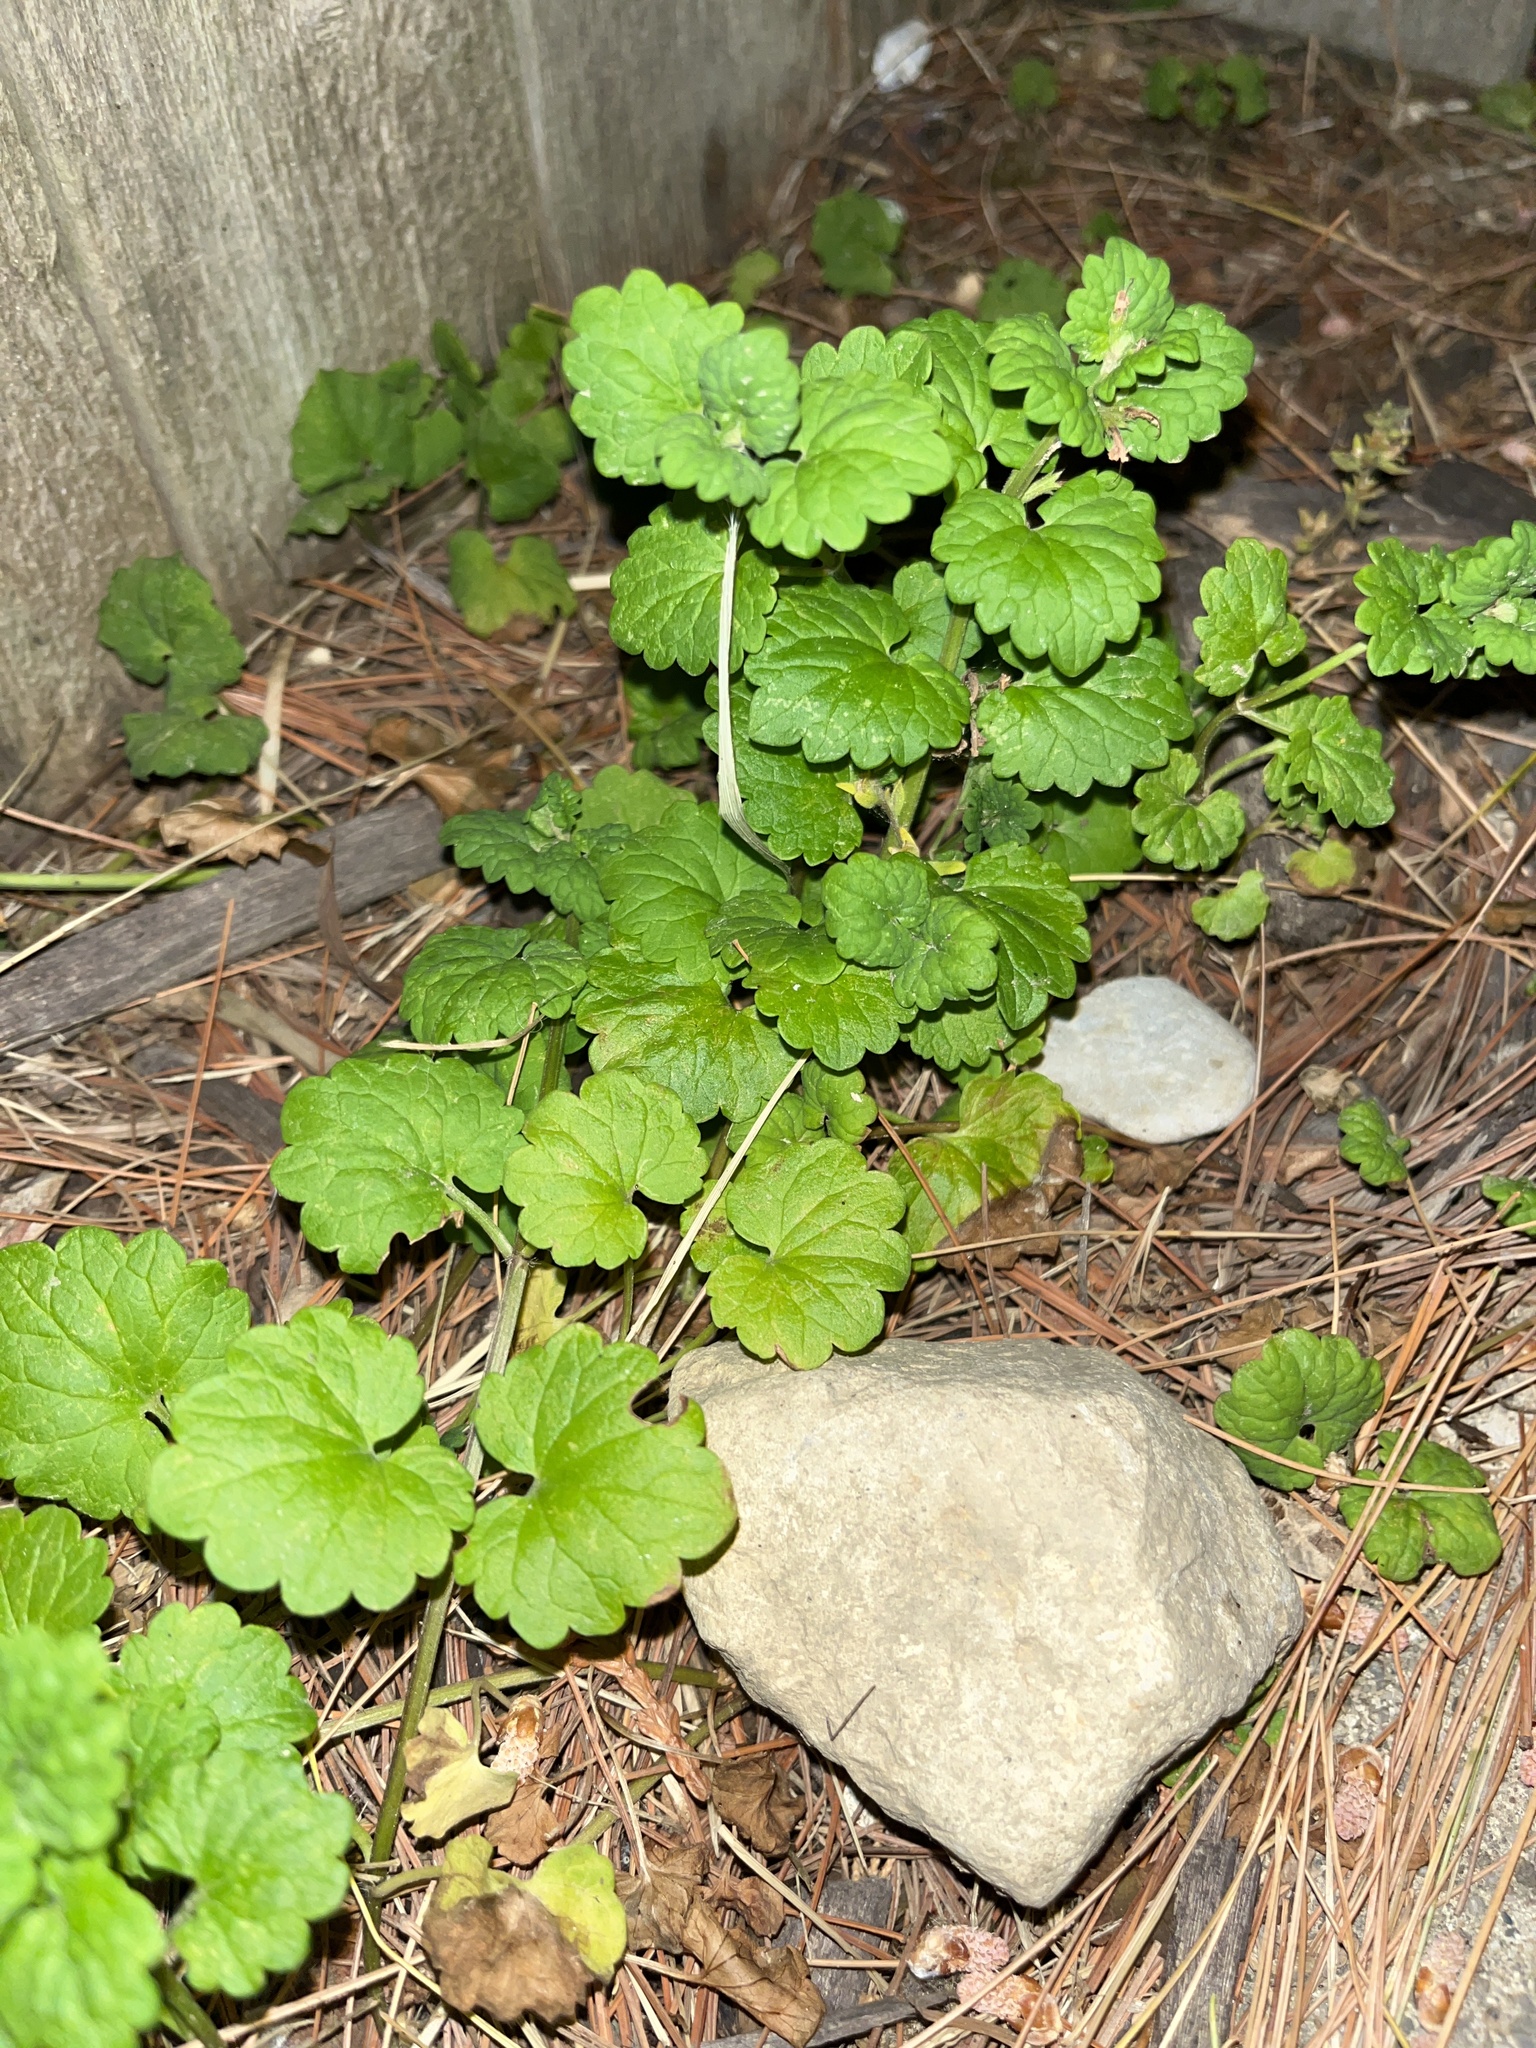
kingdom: Plantae
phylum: Tracheophyta
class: Magnoliopsida
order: Lamiales
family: Lamiaceae
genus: Glechoma
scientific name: Glechoma hederacea
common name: Ground ivy
